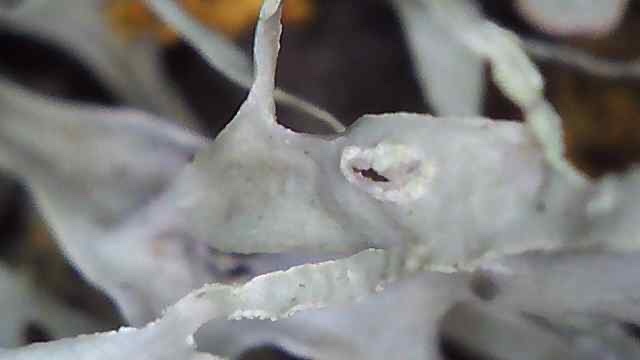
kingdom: Fungi
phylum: Ascomycota
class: Lecanoromycetes
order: Lecanorales
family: Ramalinaceae
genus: Ramalina
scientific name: Ramalina subleptocarpha
